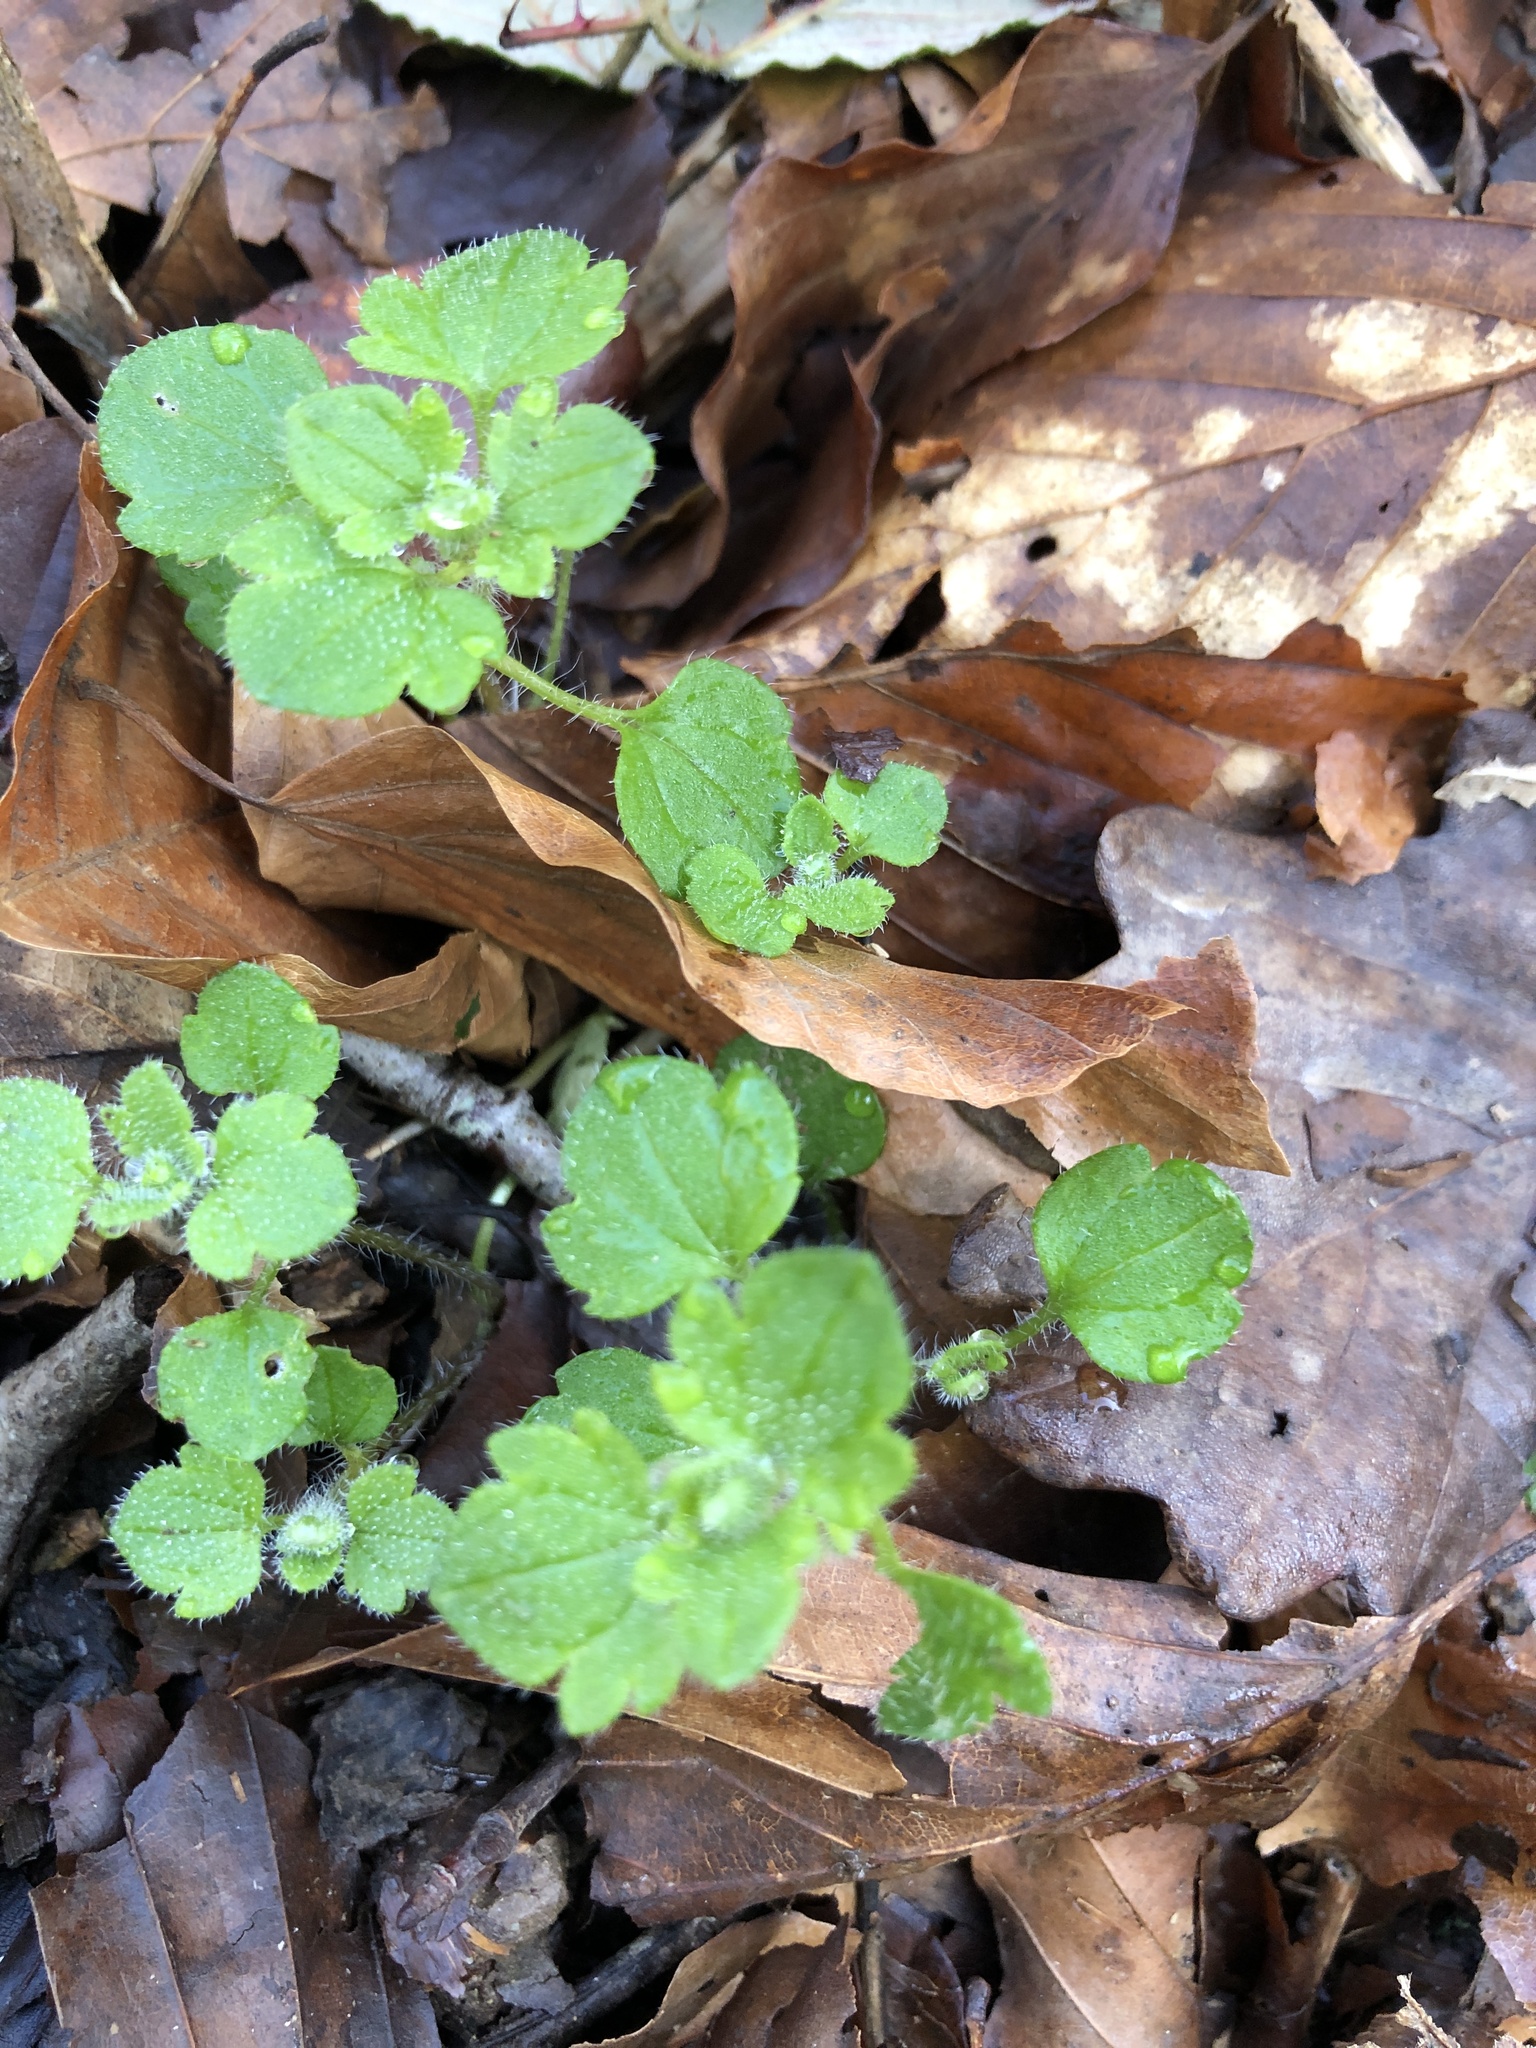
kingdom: Plantae
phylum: Tracheophyta
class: Magnoliopsida
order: Lamiales
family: Plantaginaceae
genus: Veronica
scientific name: Veronica hederifolia
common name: Ivy-leaved speedwell
